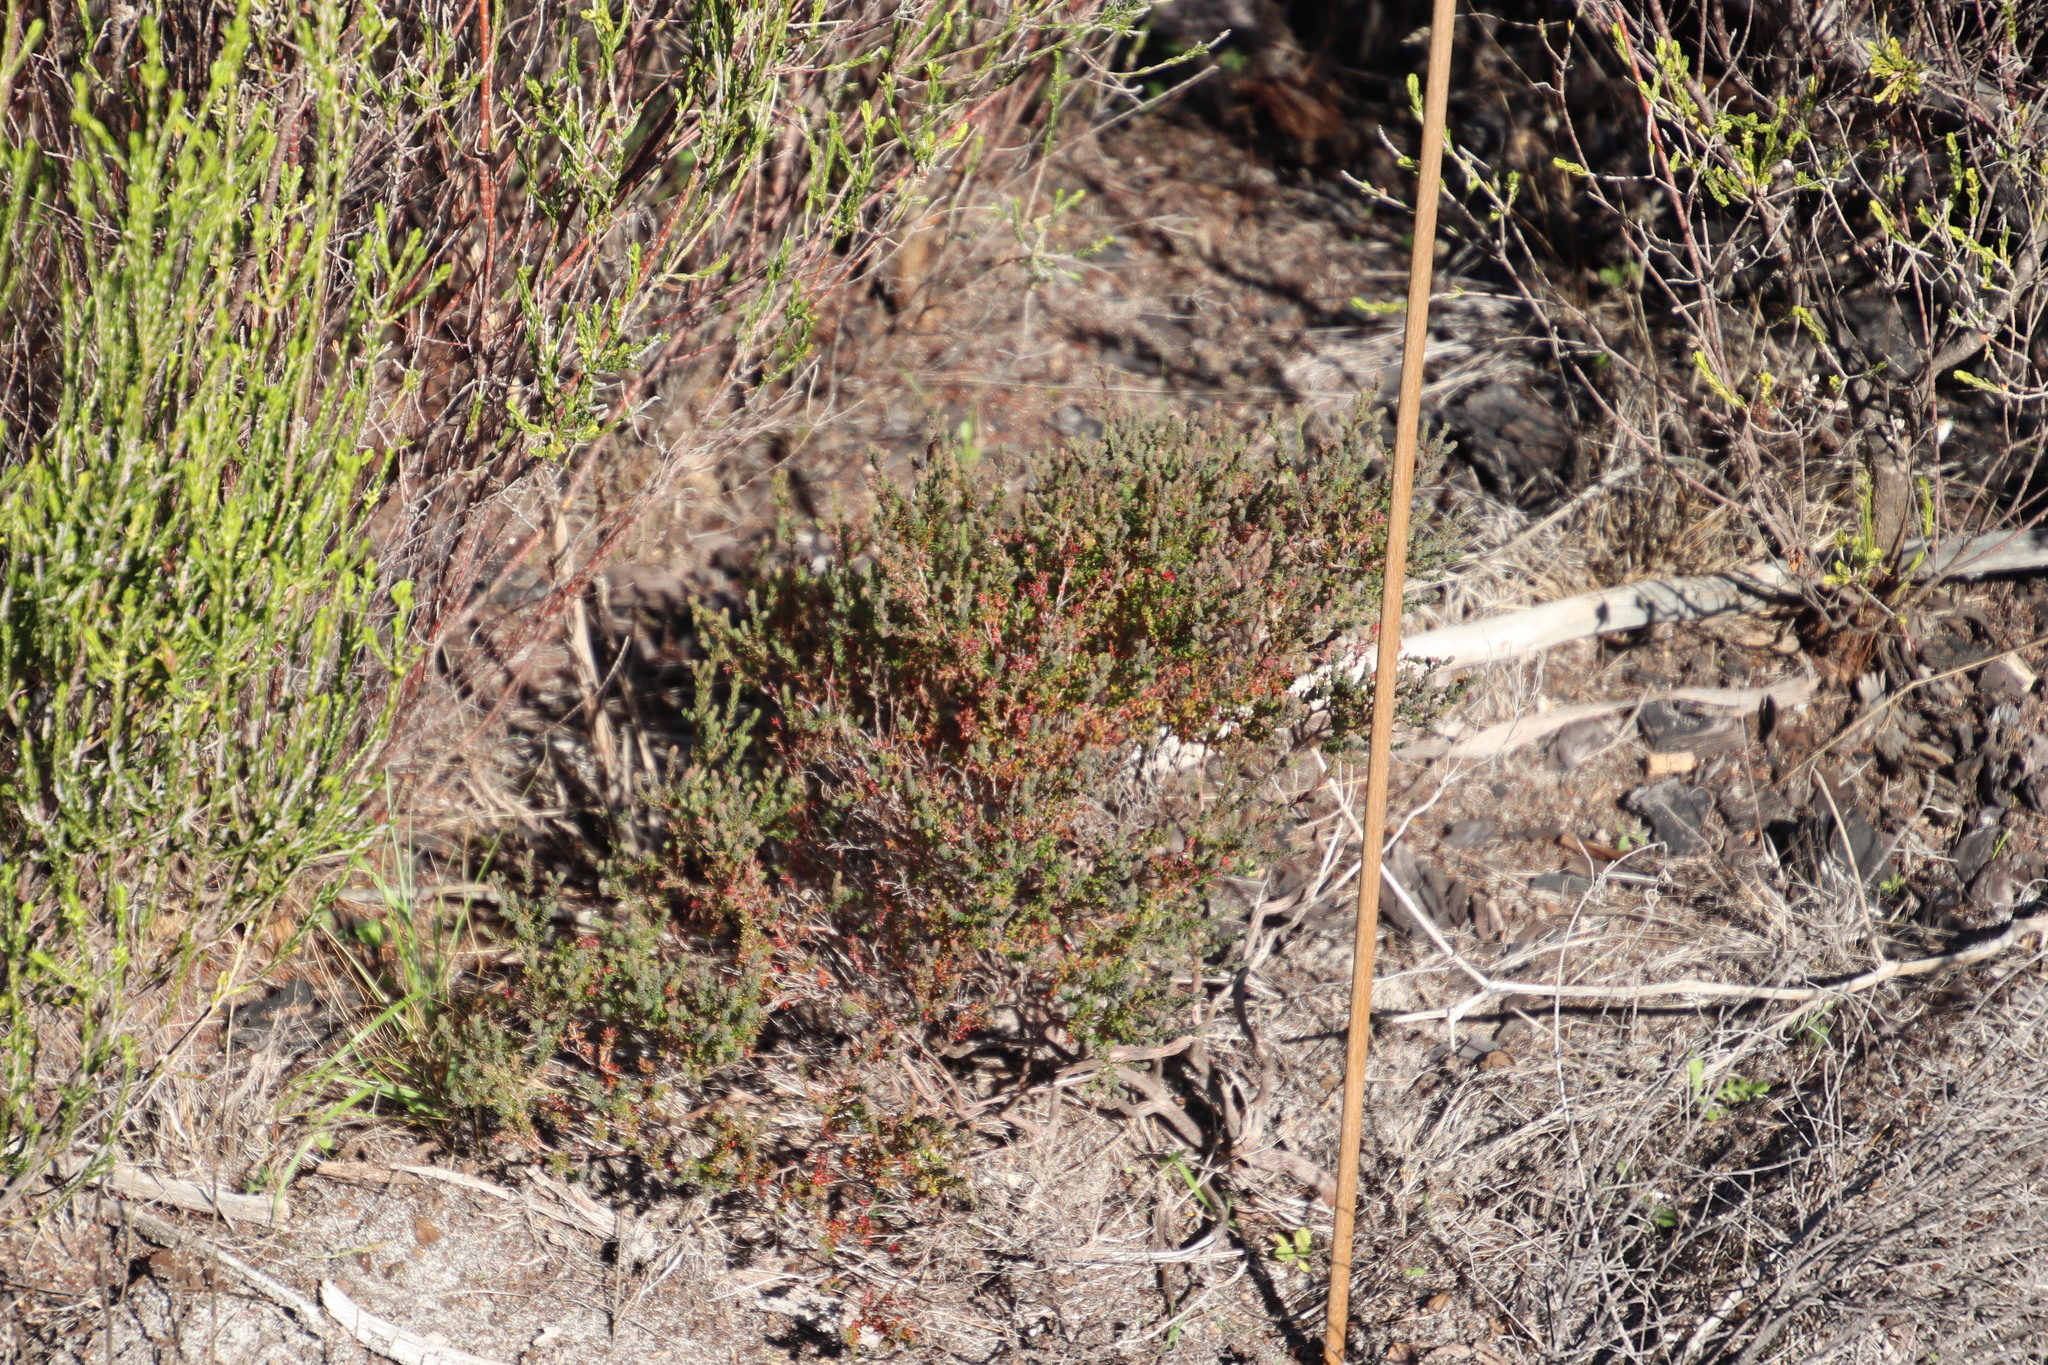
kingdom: Plantae
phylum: Tracheophyta
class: Magnoliopsida
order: Ericales
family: Ericaceae
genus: Erica
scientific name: Erica turgida
